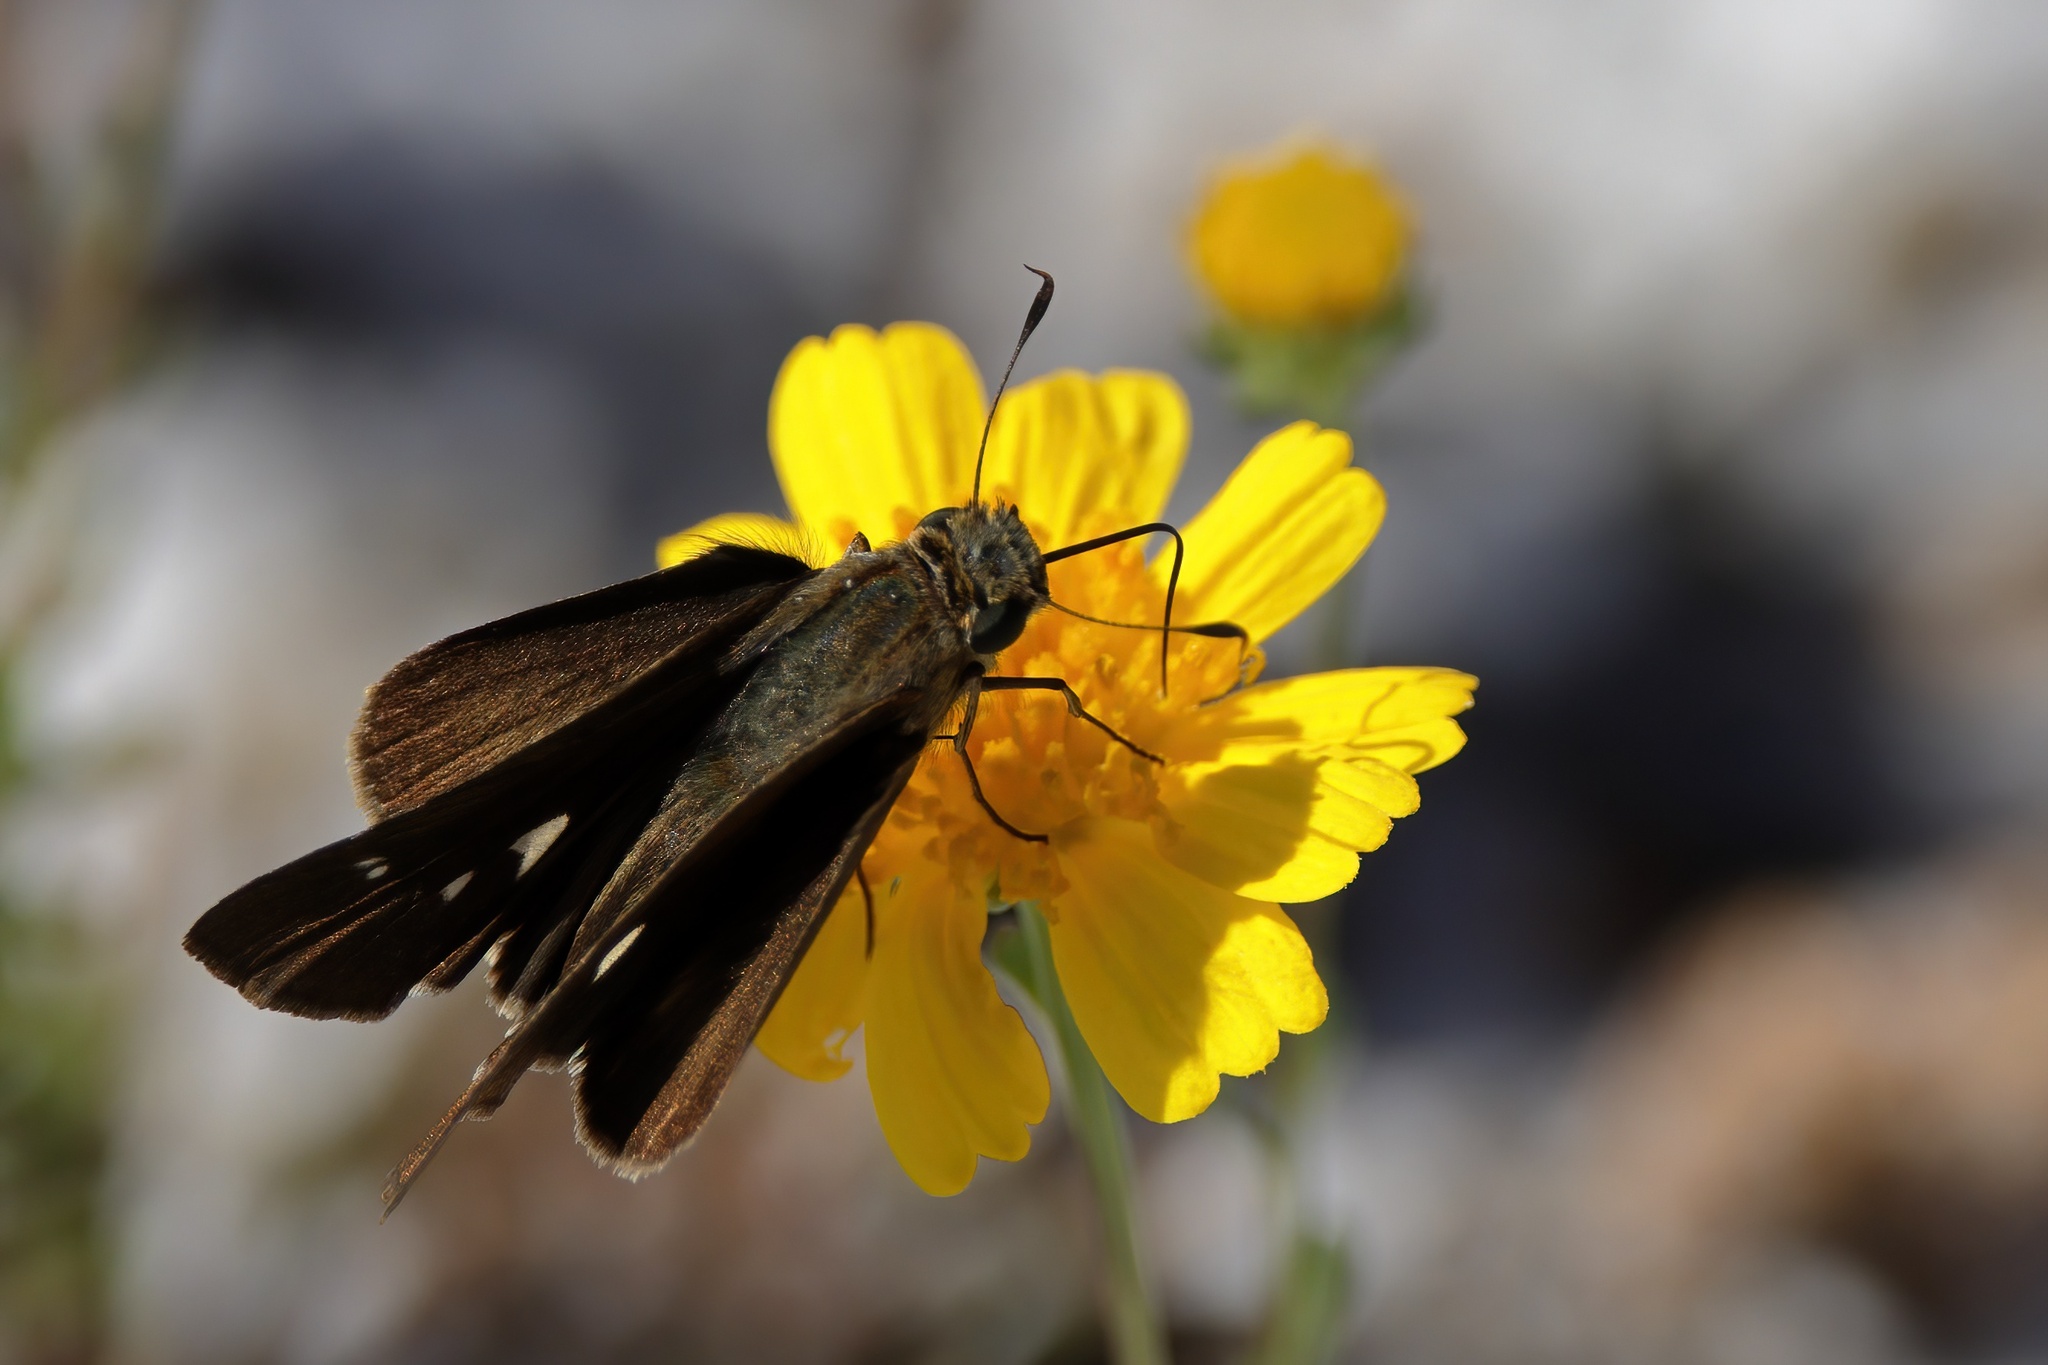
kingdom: Animalia
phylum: Arthropoda
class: Insecta
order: Lepidoptera
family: Hesperiidae
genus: Panoquina
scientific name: Panoquina ocola
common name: Ocola skipper
